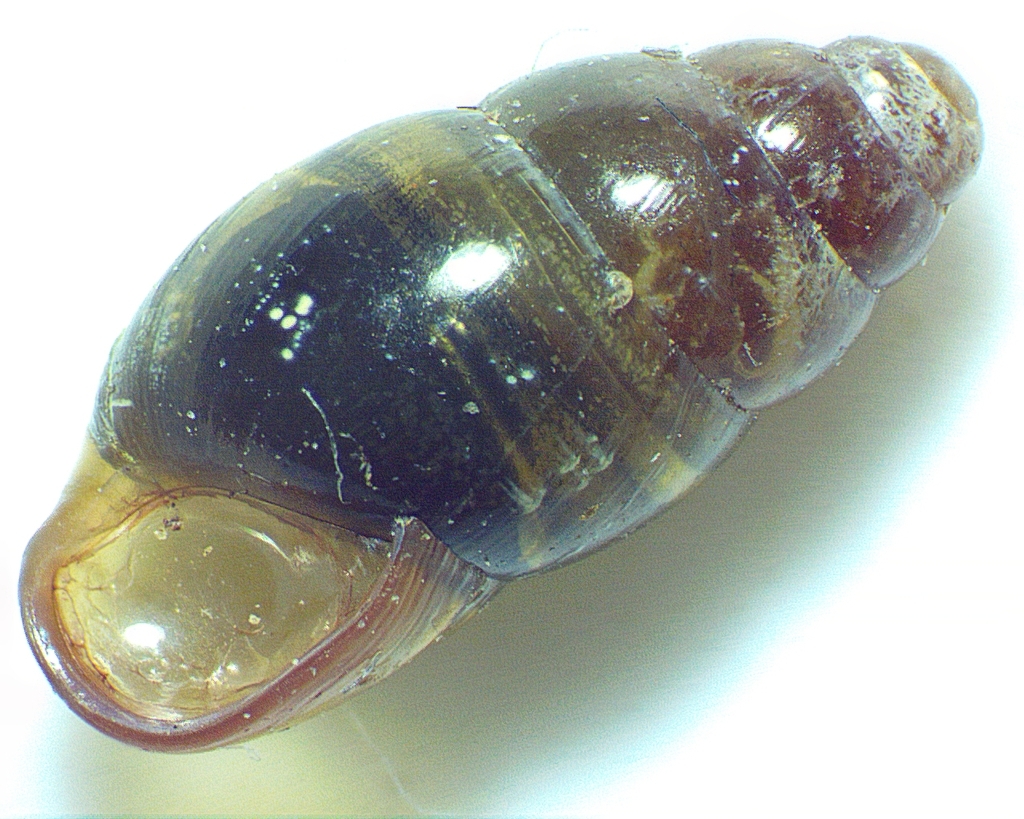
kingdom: Animalia
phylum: Mollusca
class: Gastropoda
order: Stylommatophora
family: Cochlicopidae
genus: Cochlicopa
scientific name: Cochlicopa lubrica
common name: Glossy pillar snail
